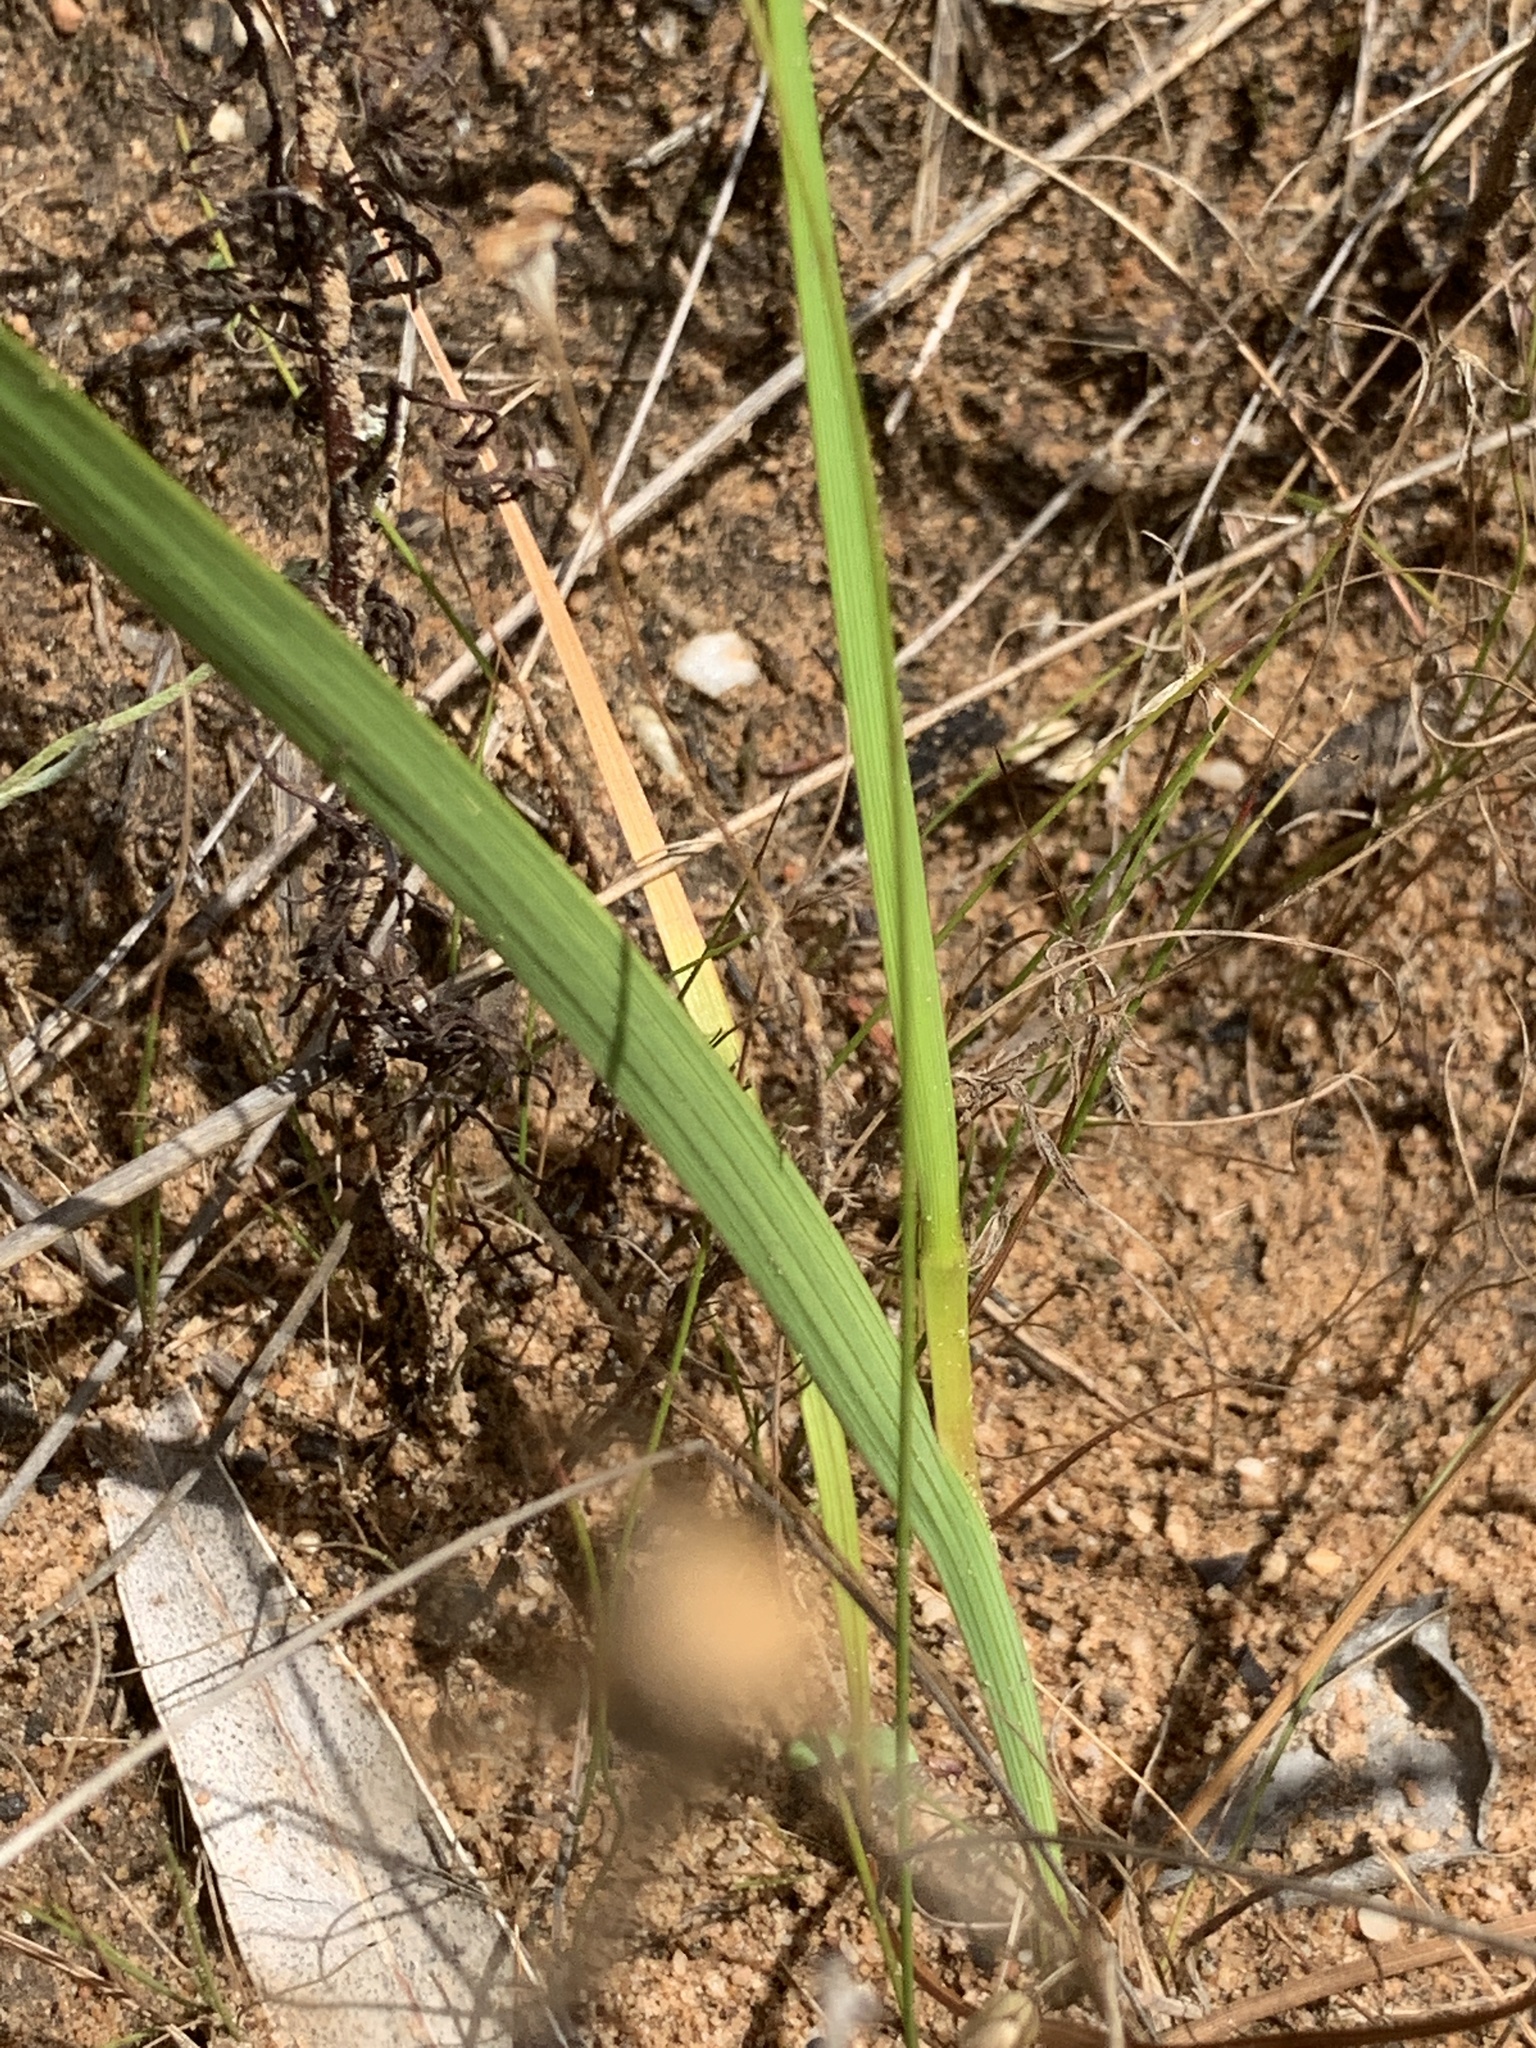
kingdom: Plantae
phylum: Tracheophyta
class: Liliopsida
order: Asparagales
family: Iridaceae
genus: Micranthus
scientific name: Micranthus alopecuroides
